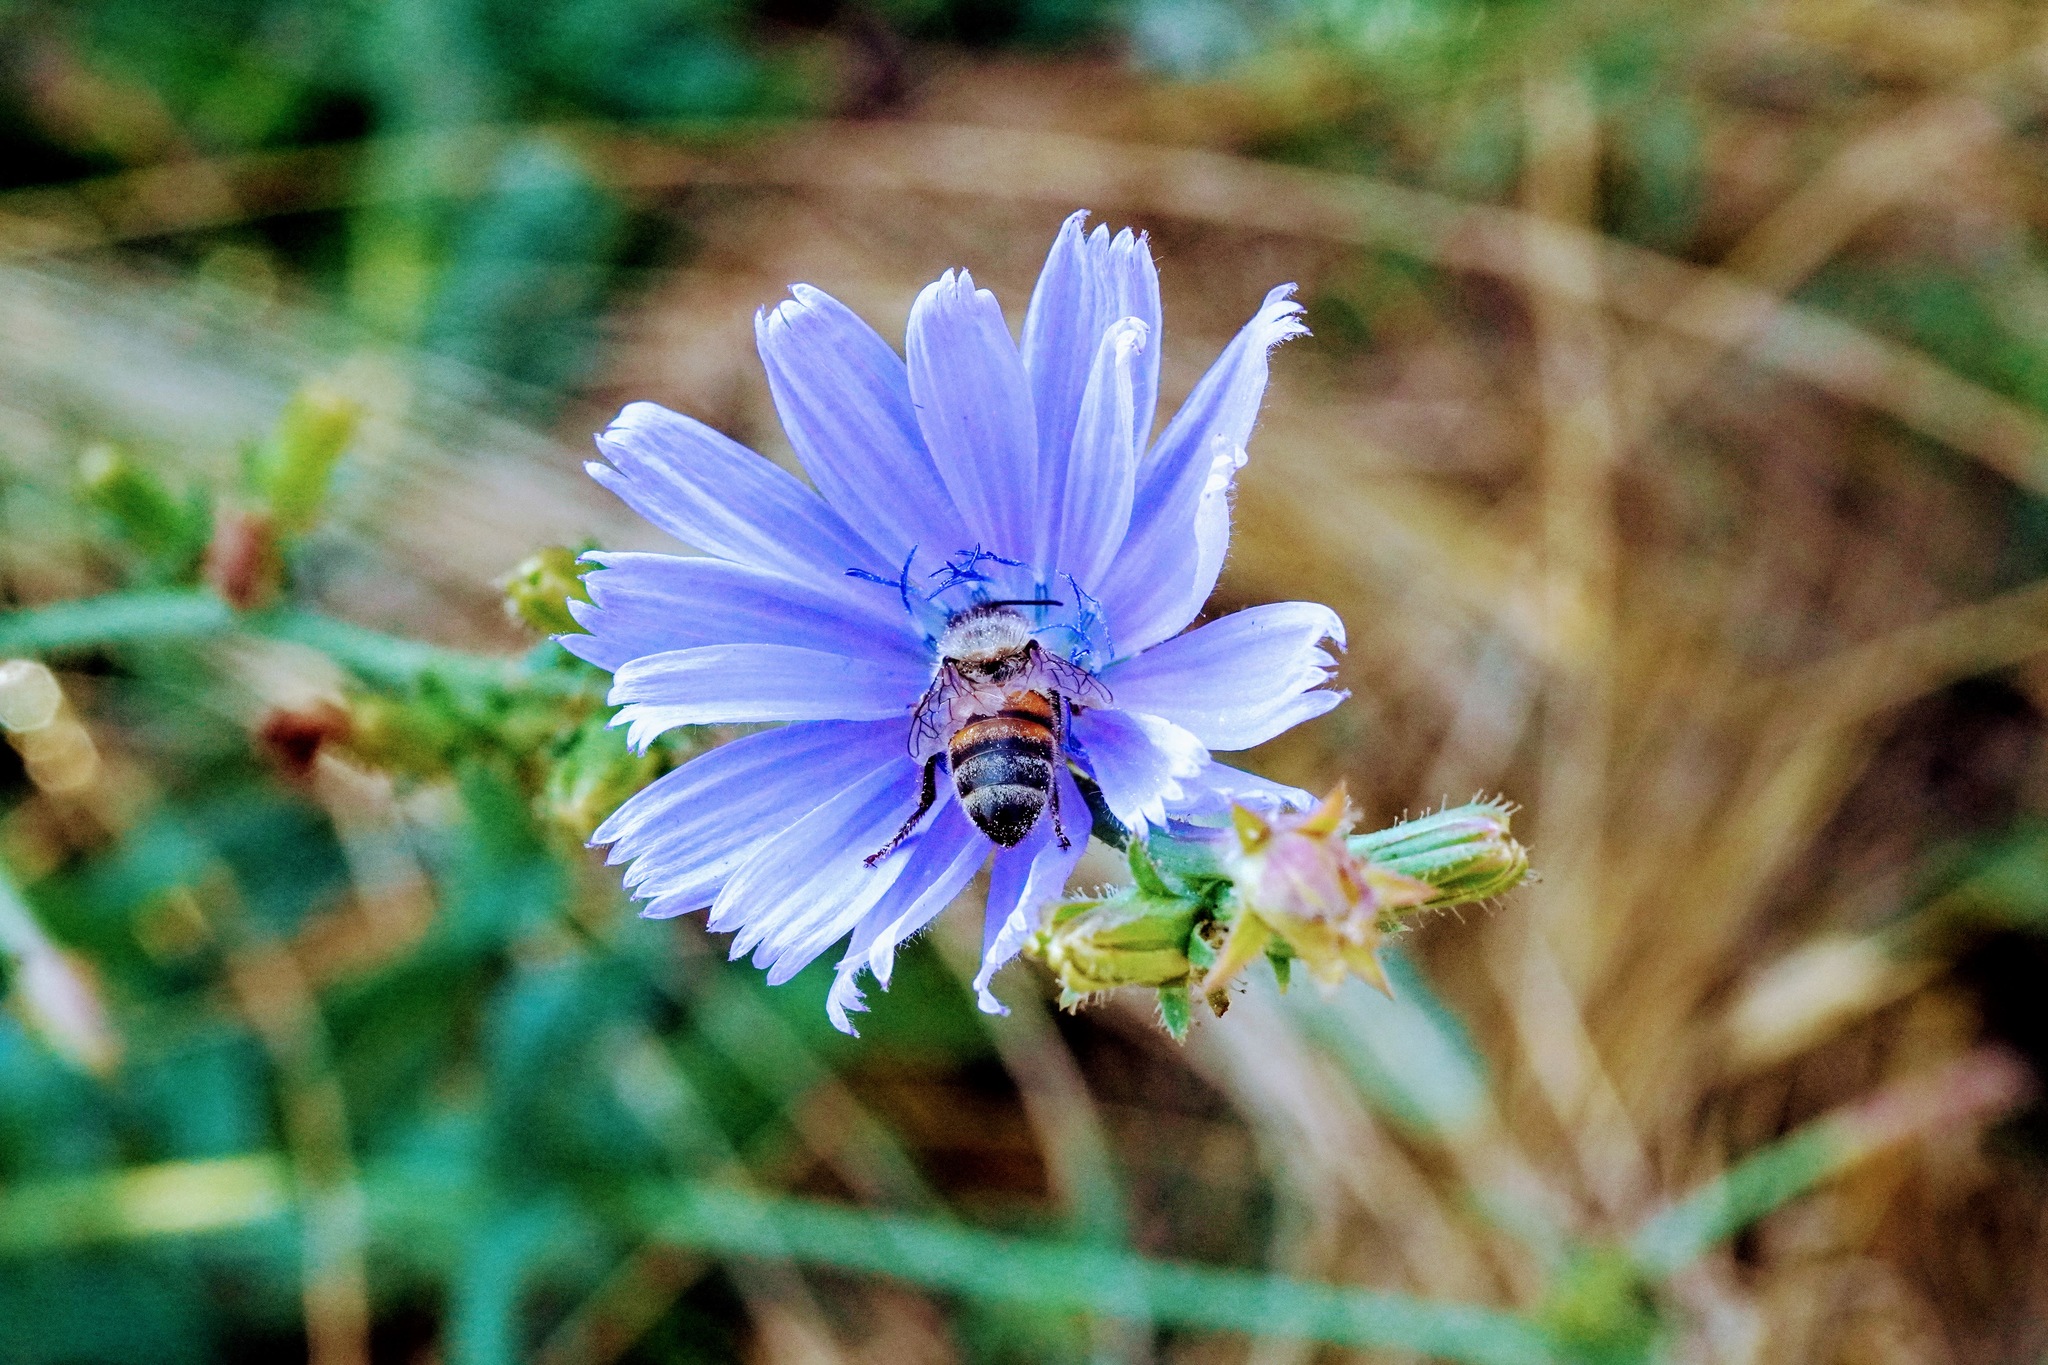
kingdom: Animalia
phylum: Arthropoda
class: Insecta
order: Hymenoptera
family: Apidae
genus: Apis
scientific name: Apis mellifera
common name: Honey bee
